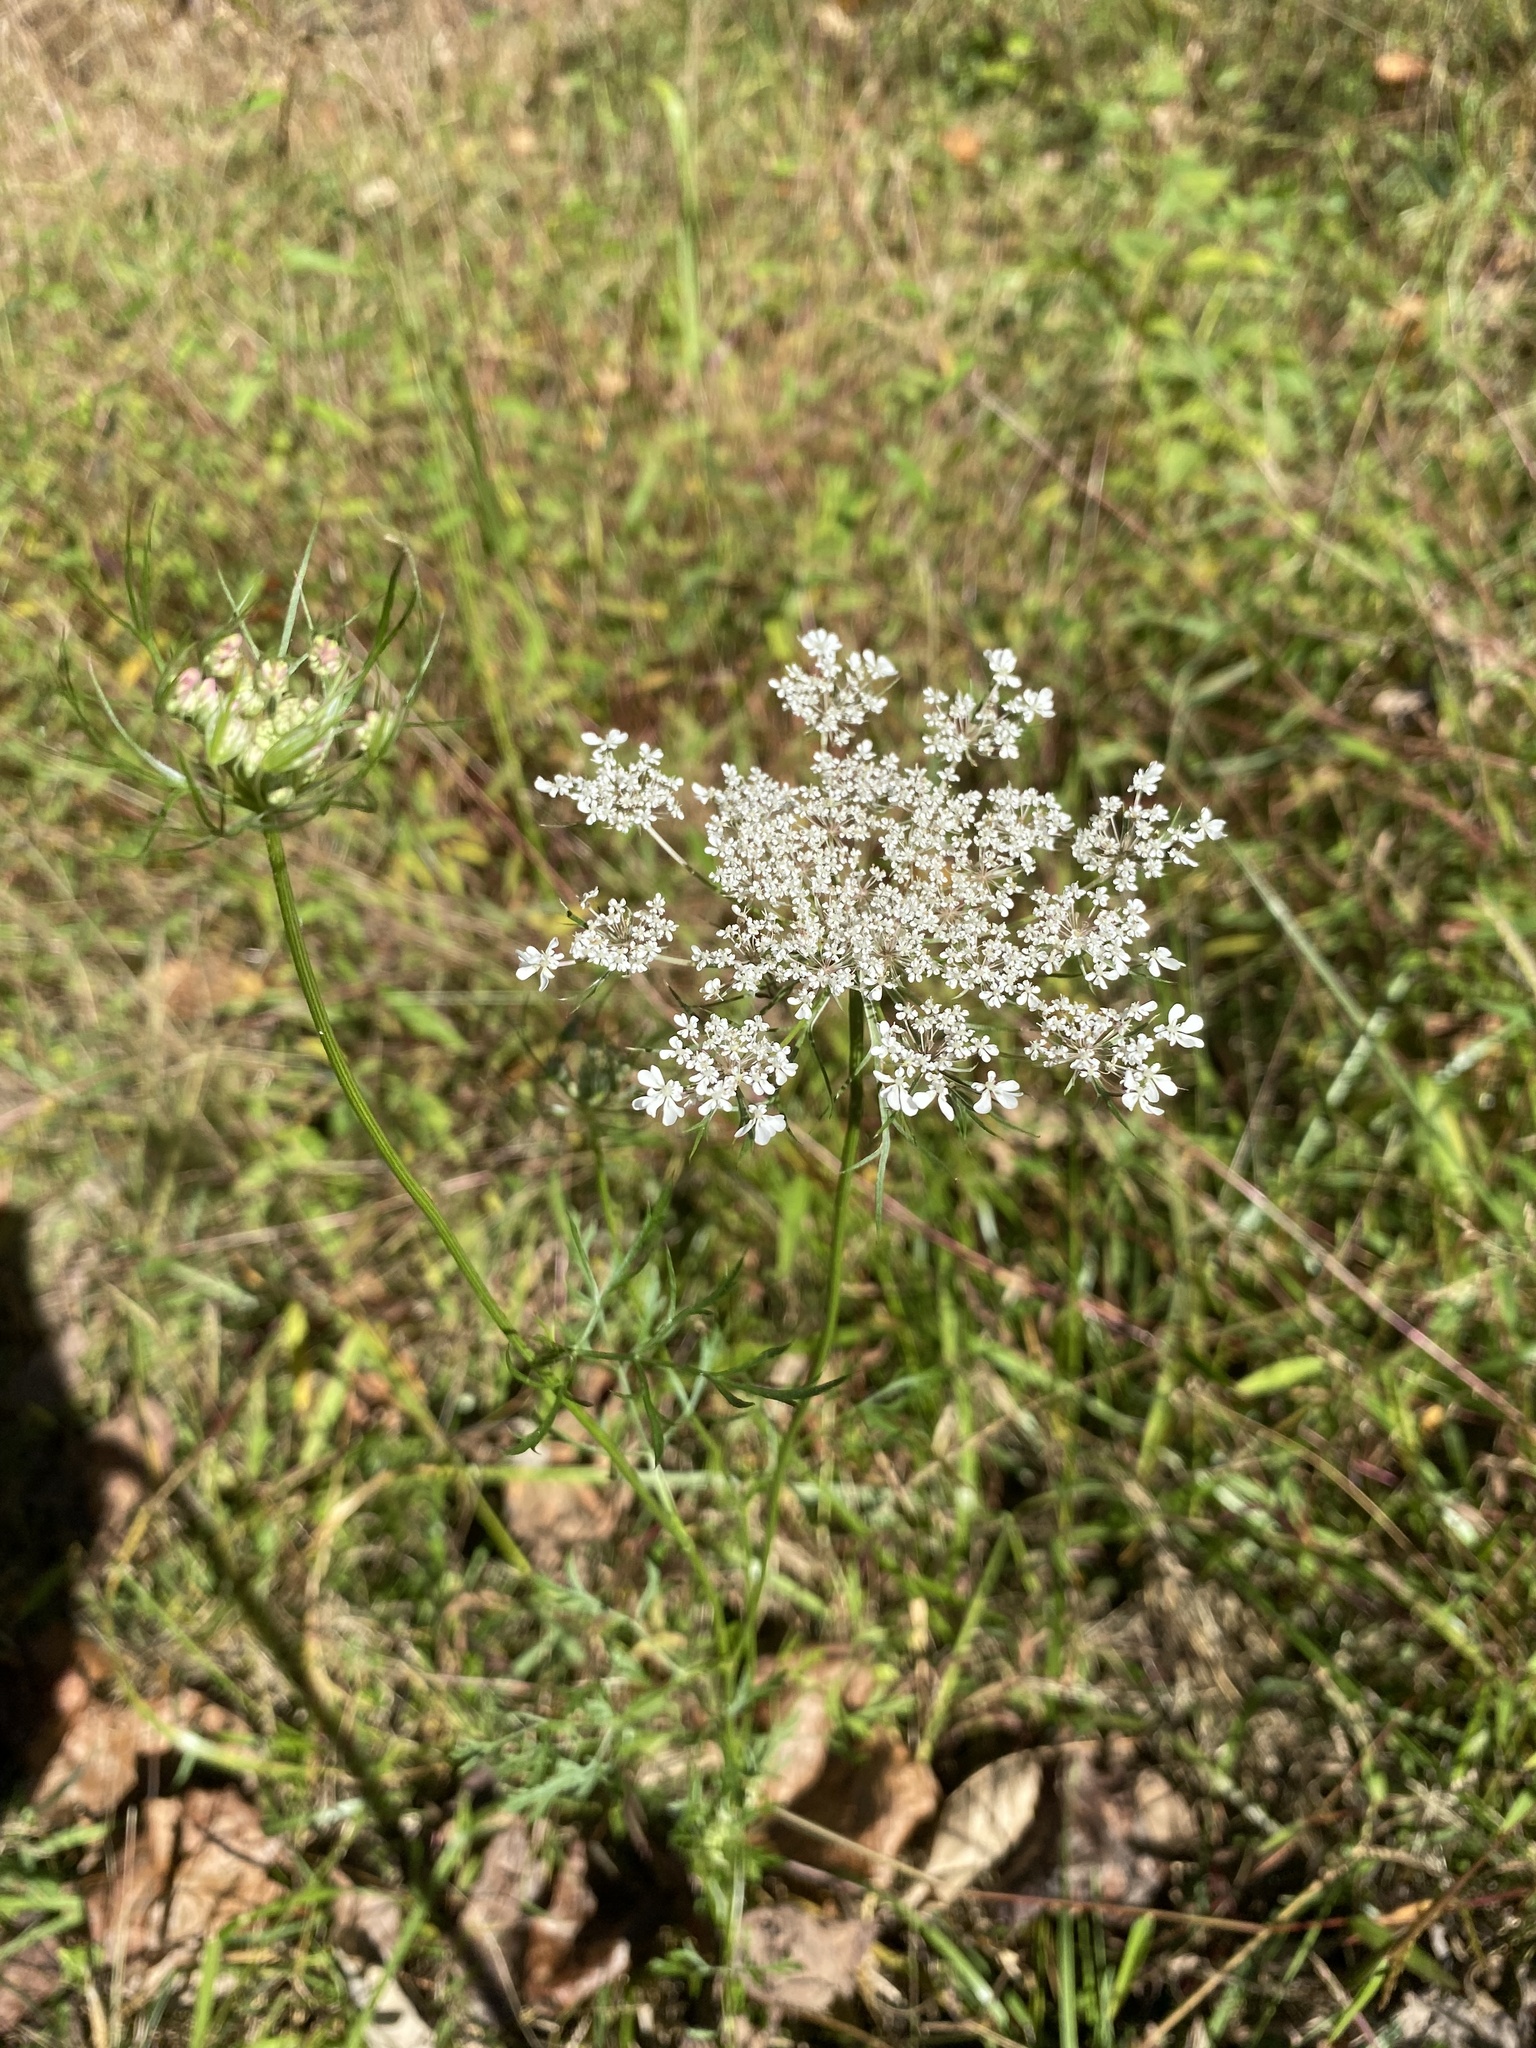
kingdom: Plantae
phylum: Tracheophyta
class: Magnoliopsida
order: Apiales
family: Apiaceae
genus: Daucus
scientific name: Daucus carota
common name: Wild carrot
